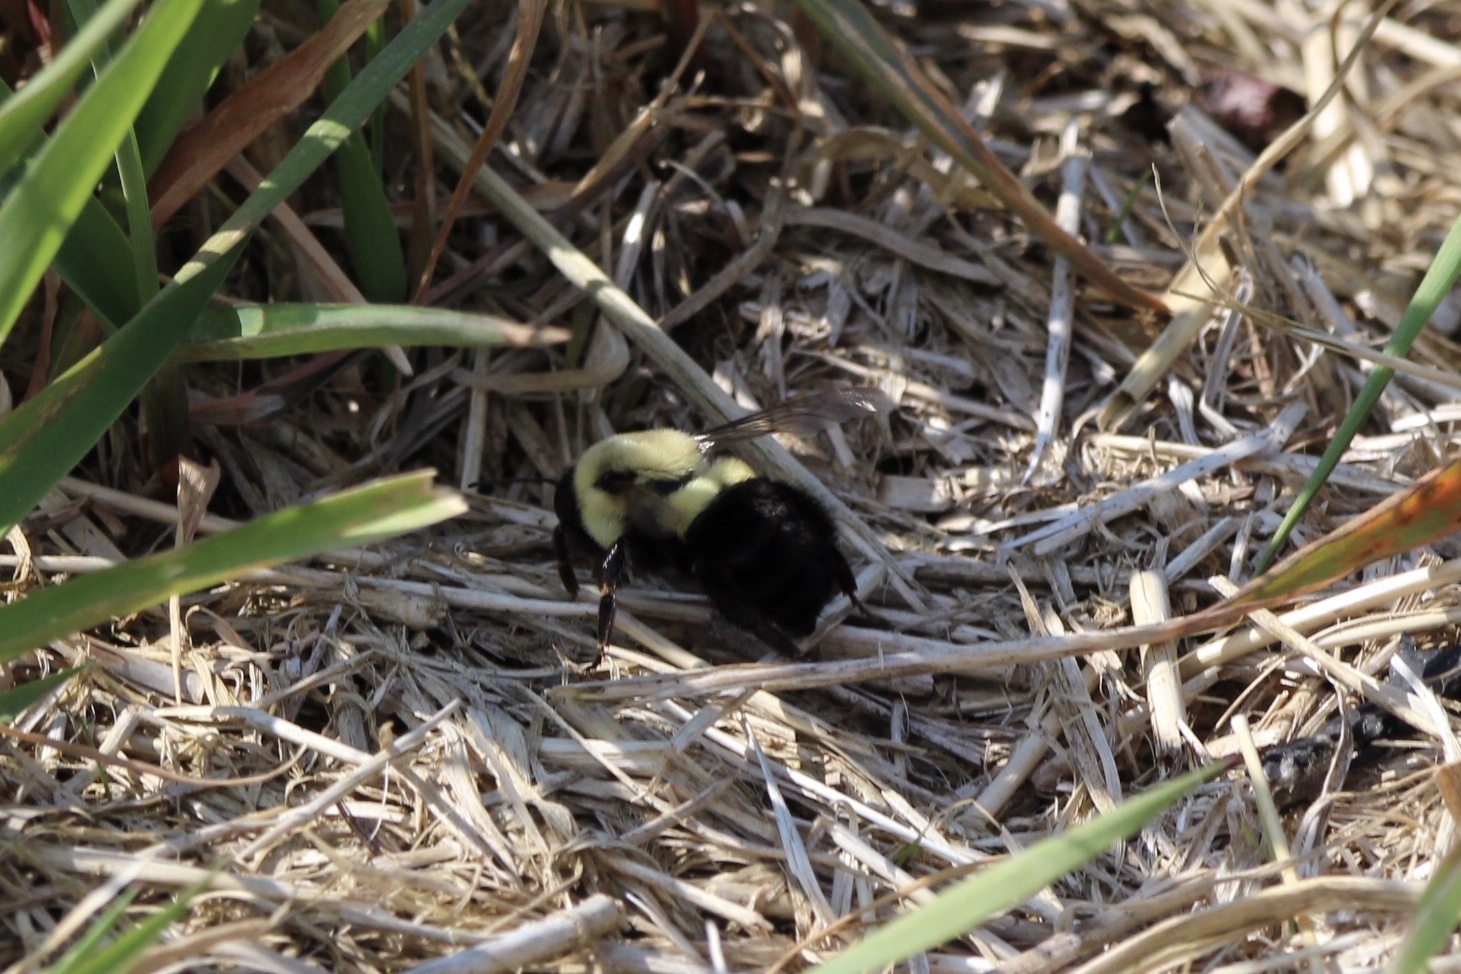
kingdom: Animalia
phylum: Arthropoda
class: Insecta
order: Hymenoptera
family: Apidae
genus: Bombus
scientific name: Bombus impatiens
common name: Common eastern bumble bee
